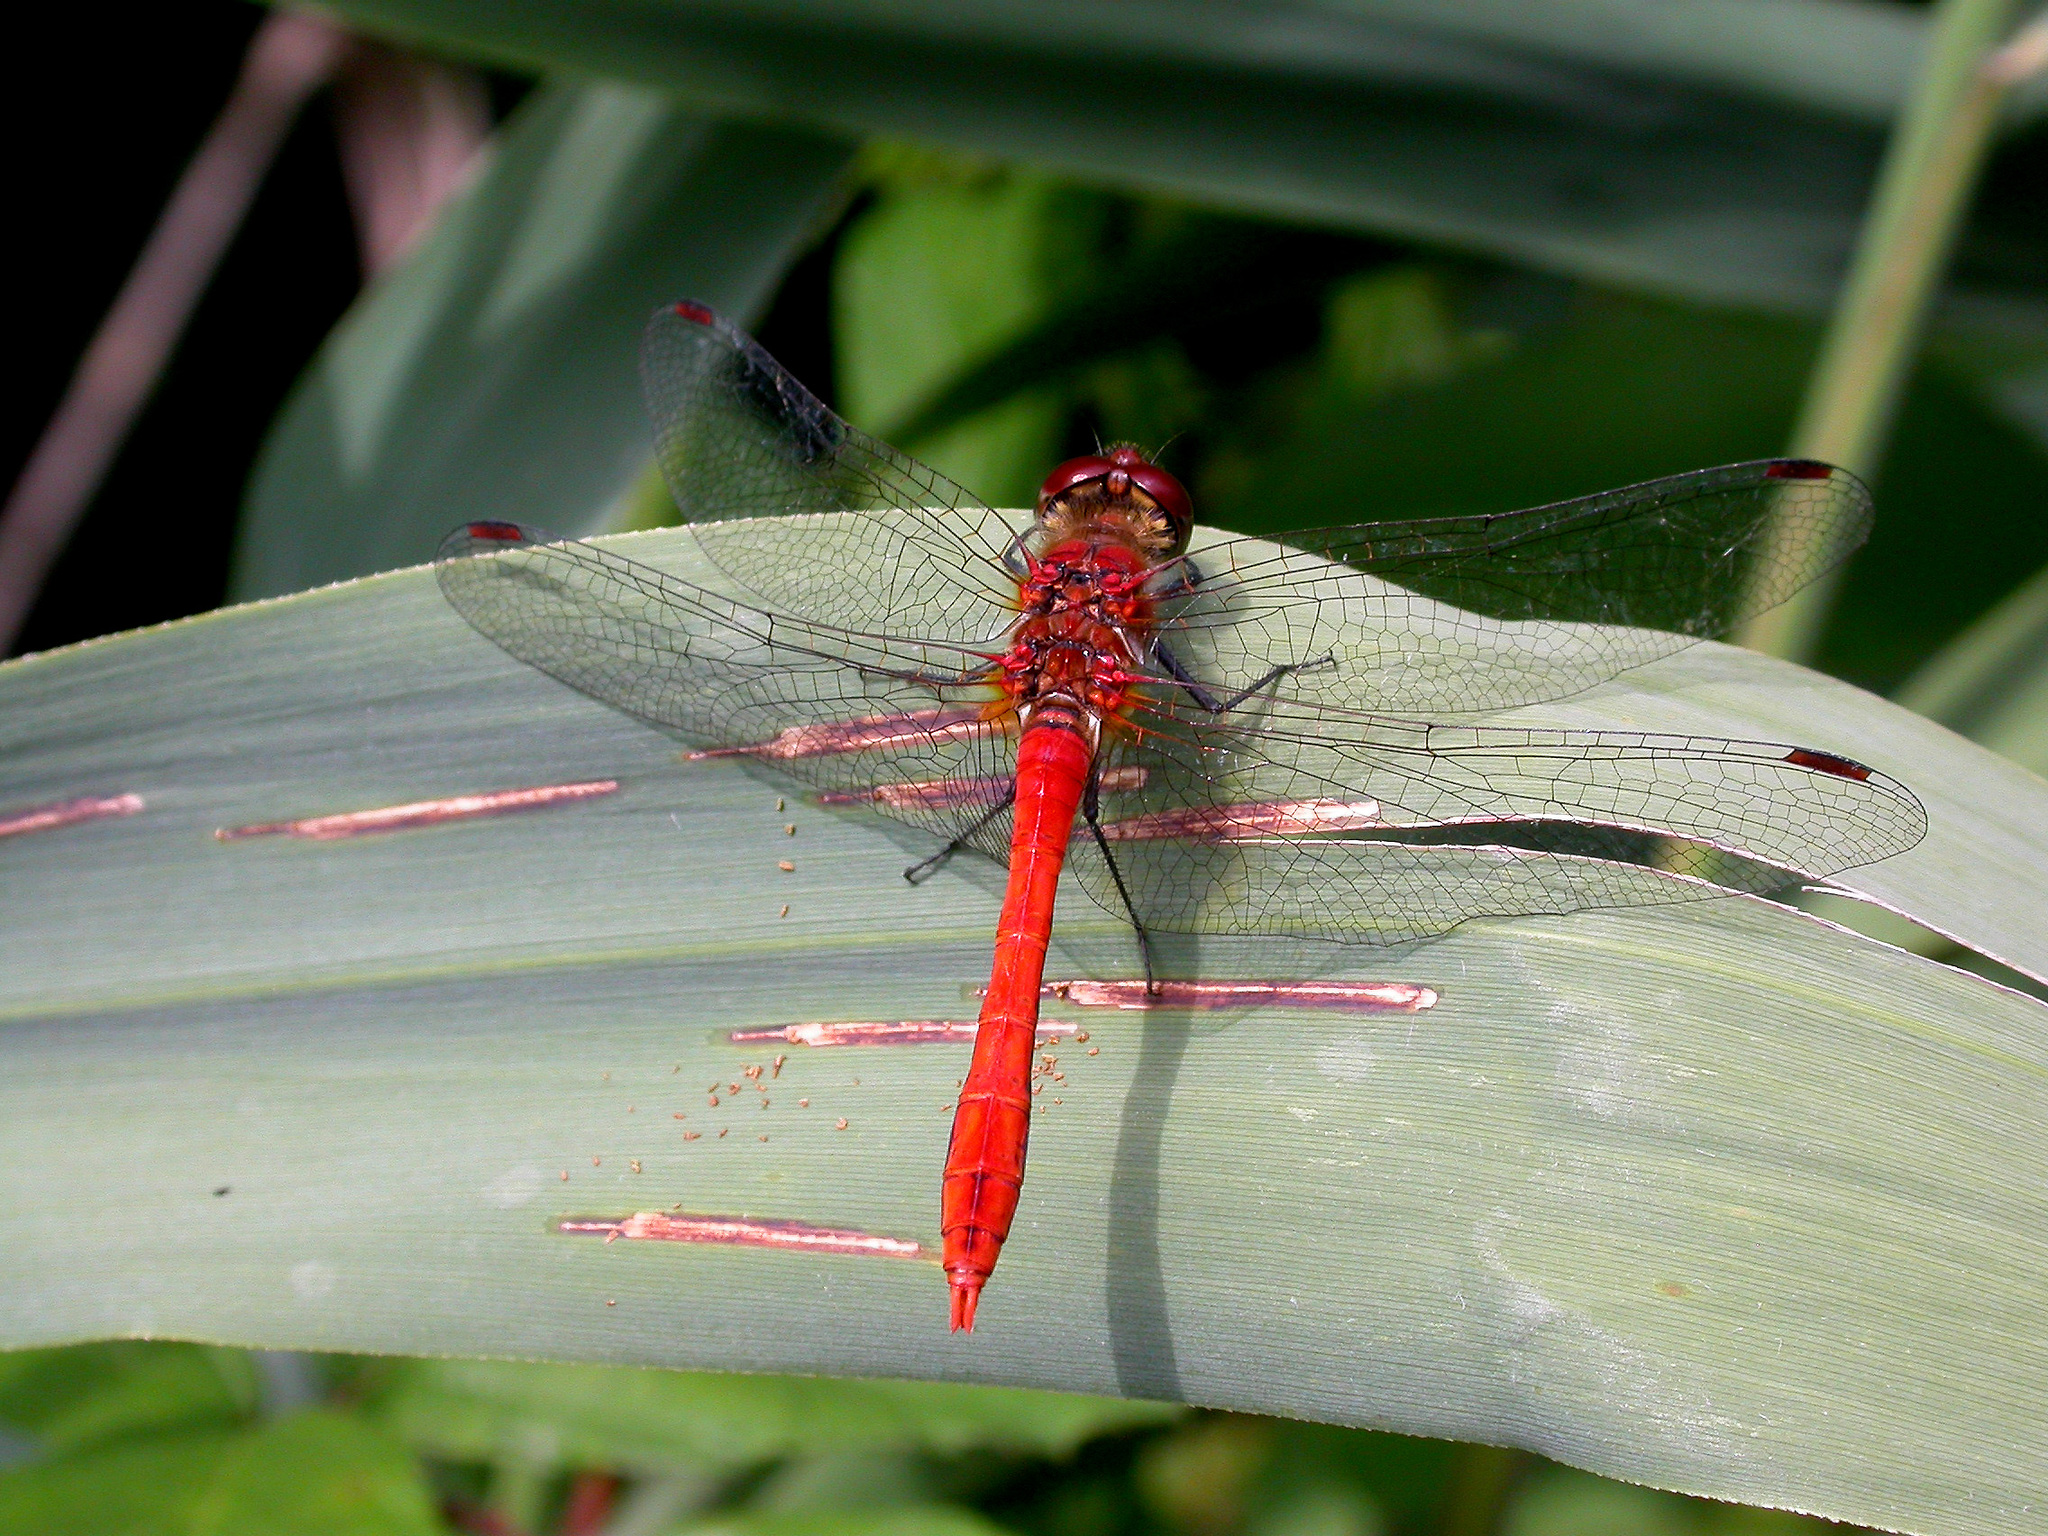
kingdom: Animalia
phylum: Arthropoda
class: Insecta
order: Odonata
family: Libellulidae
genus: Sympetrum
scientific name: Sympetrum sanguineum
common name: Ruddy darter
